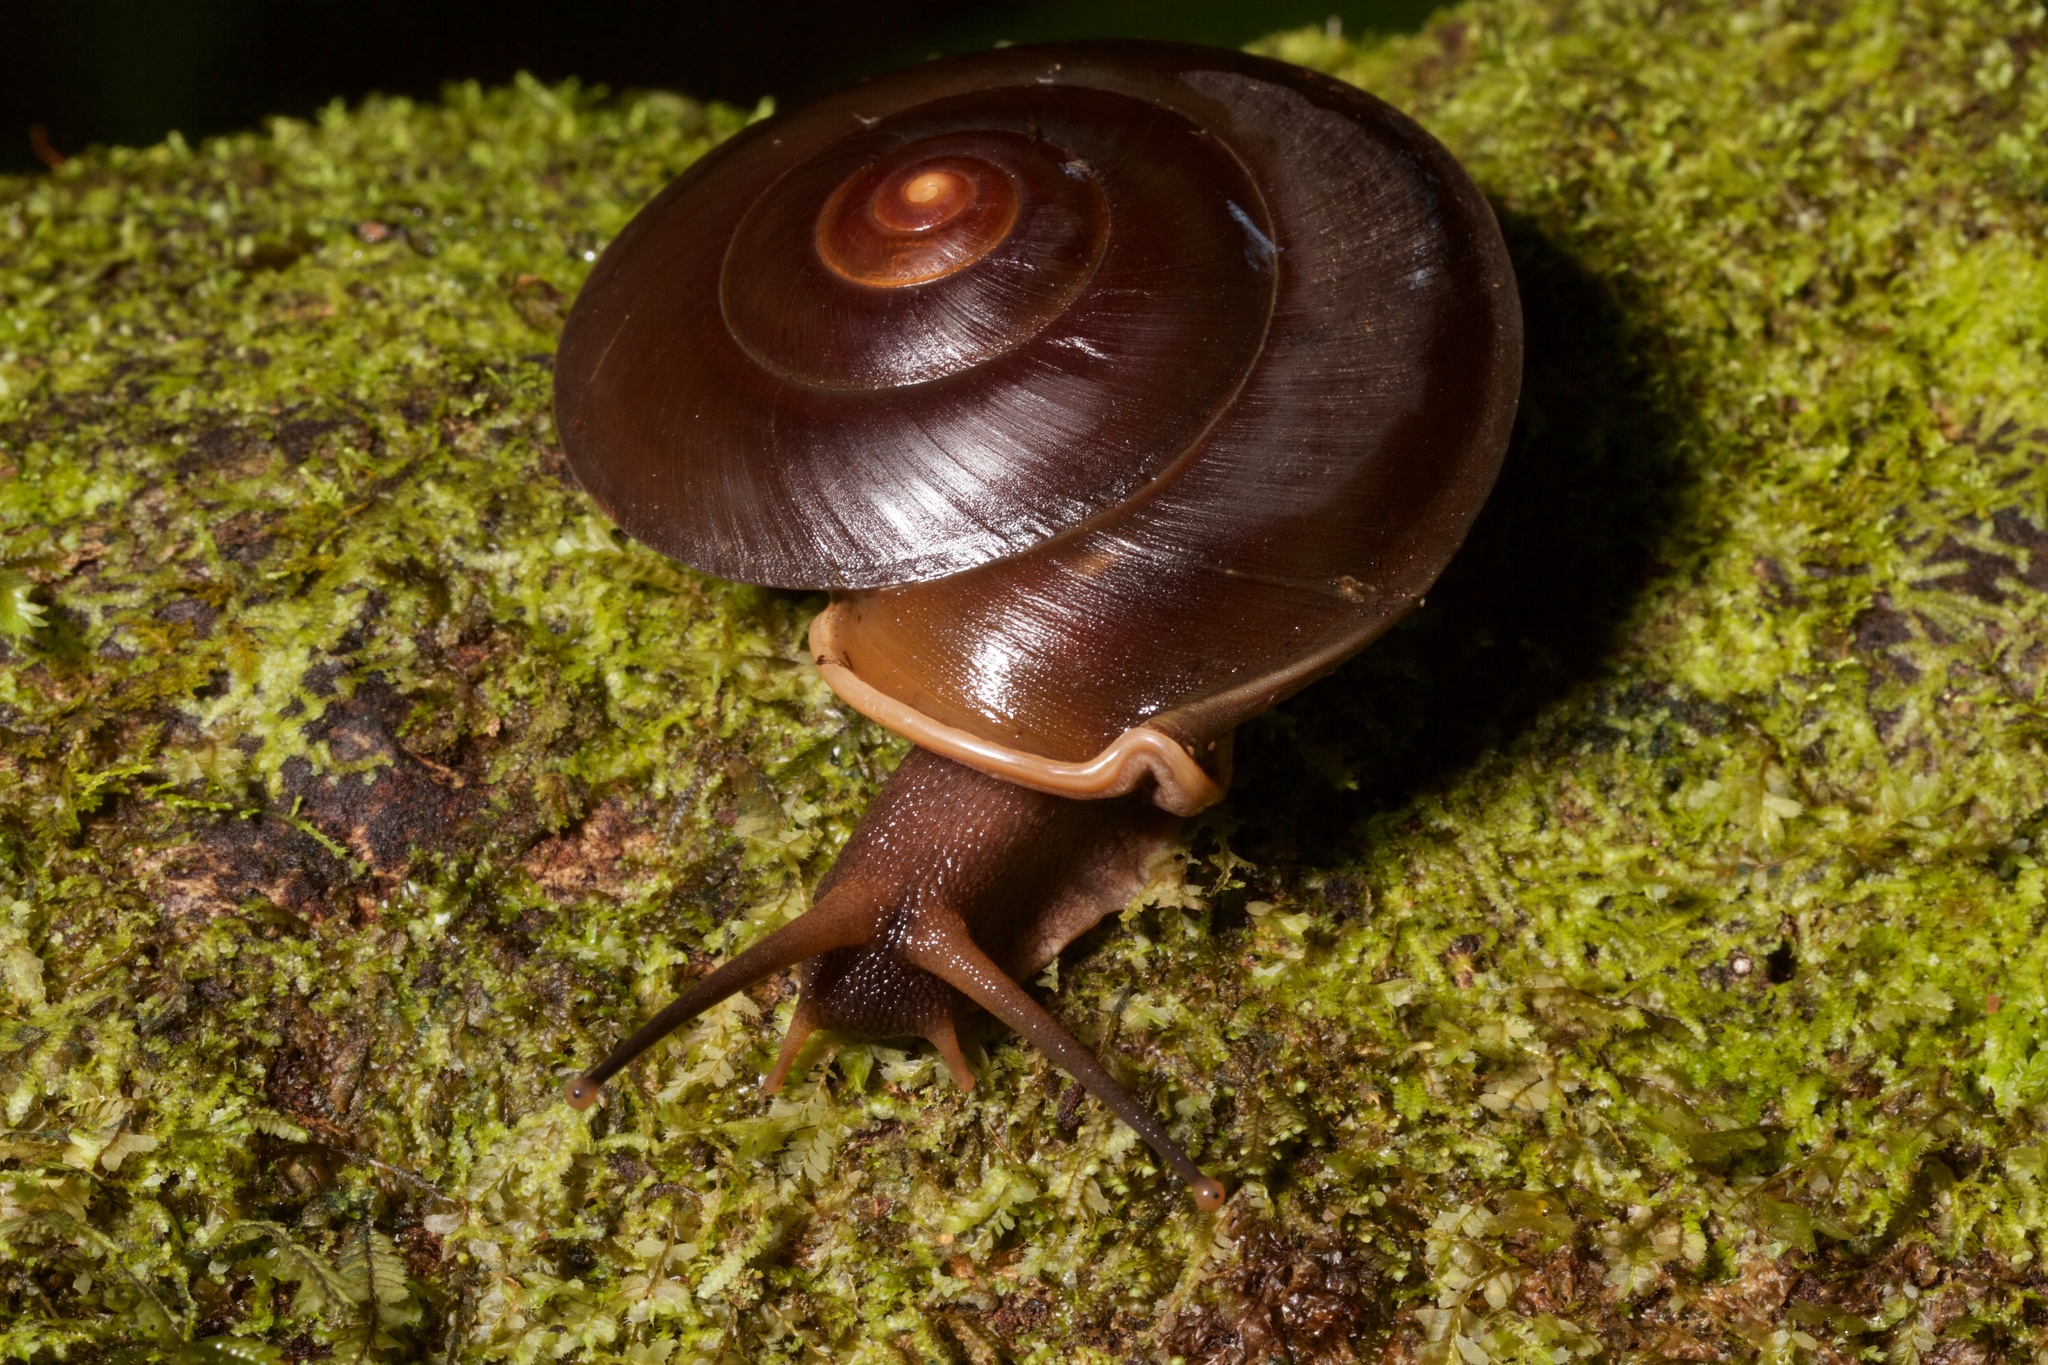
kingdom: Animalia
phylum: Mollusca
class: Gastropoda
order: Stylommatophora
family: Labyrinthidae
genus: Labyrinthus
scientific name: Labyrinthus otis
